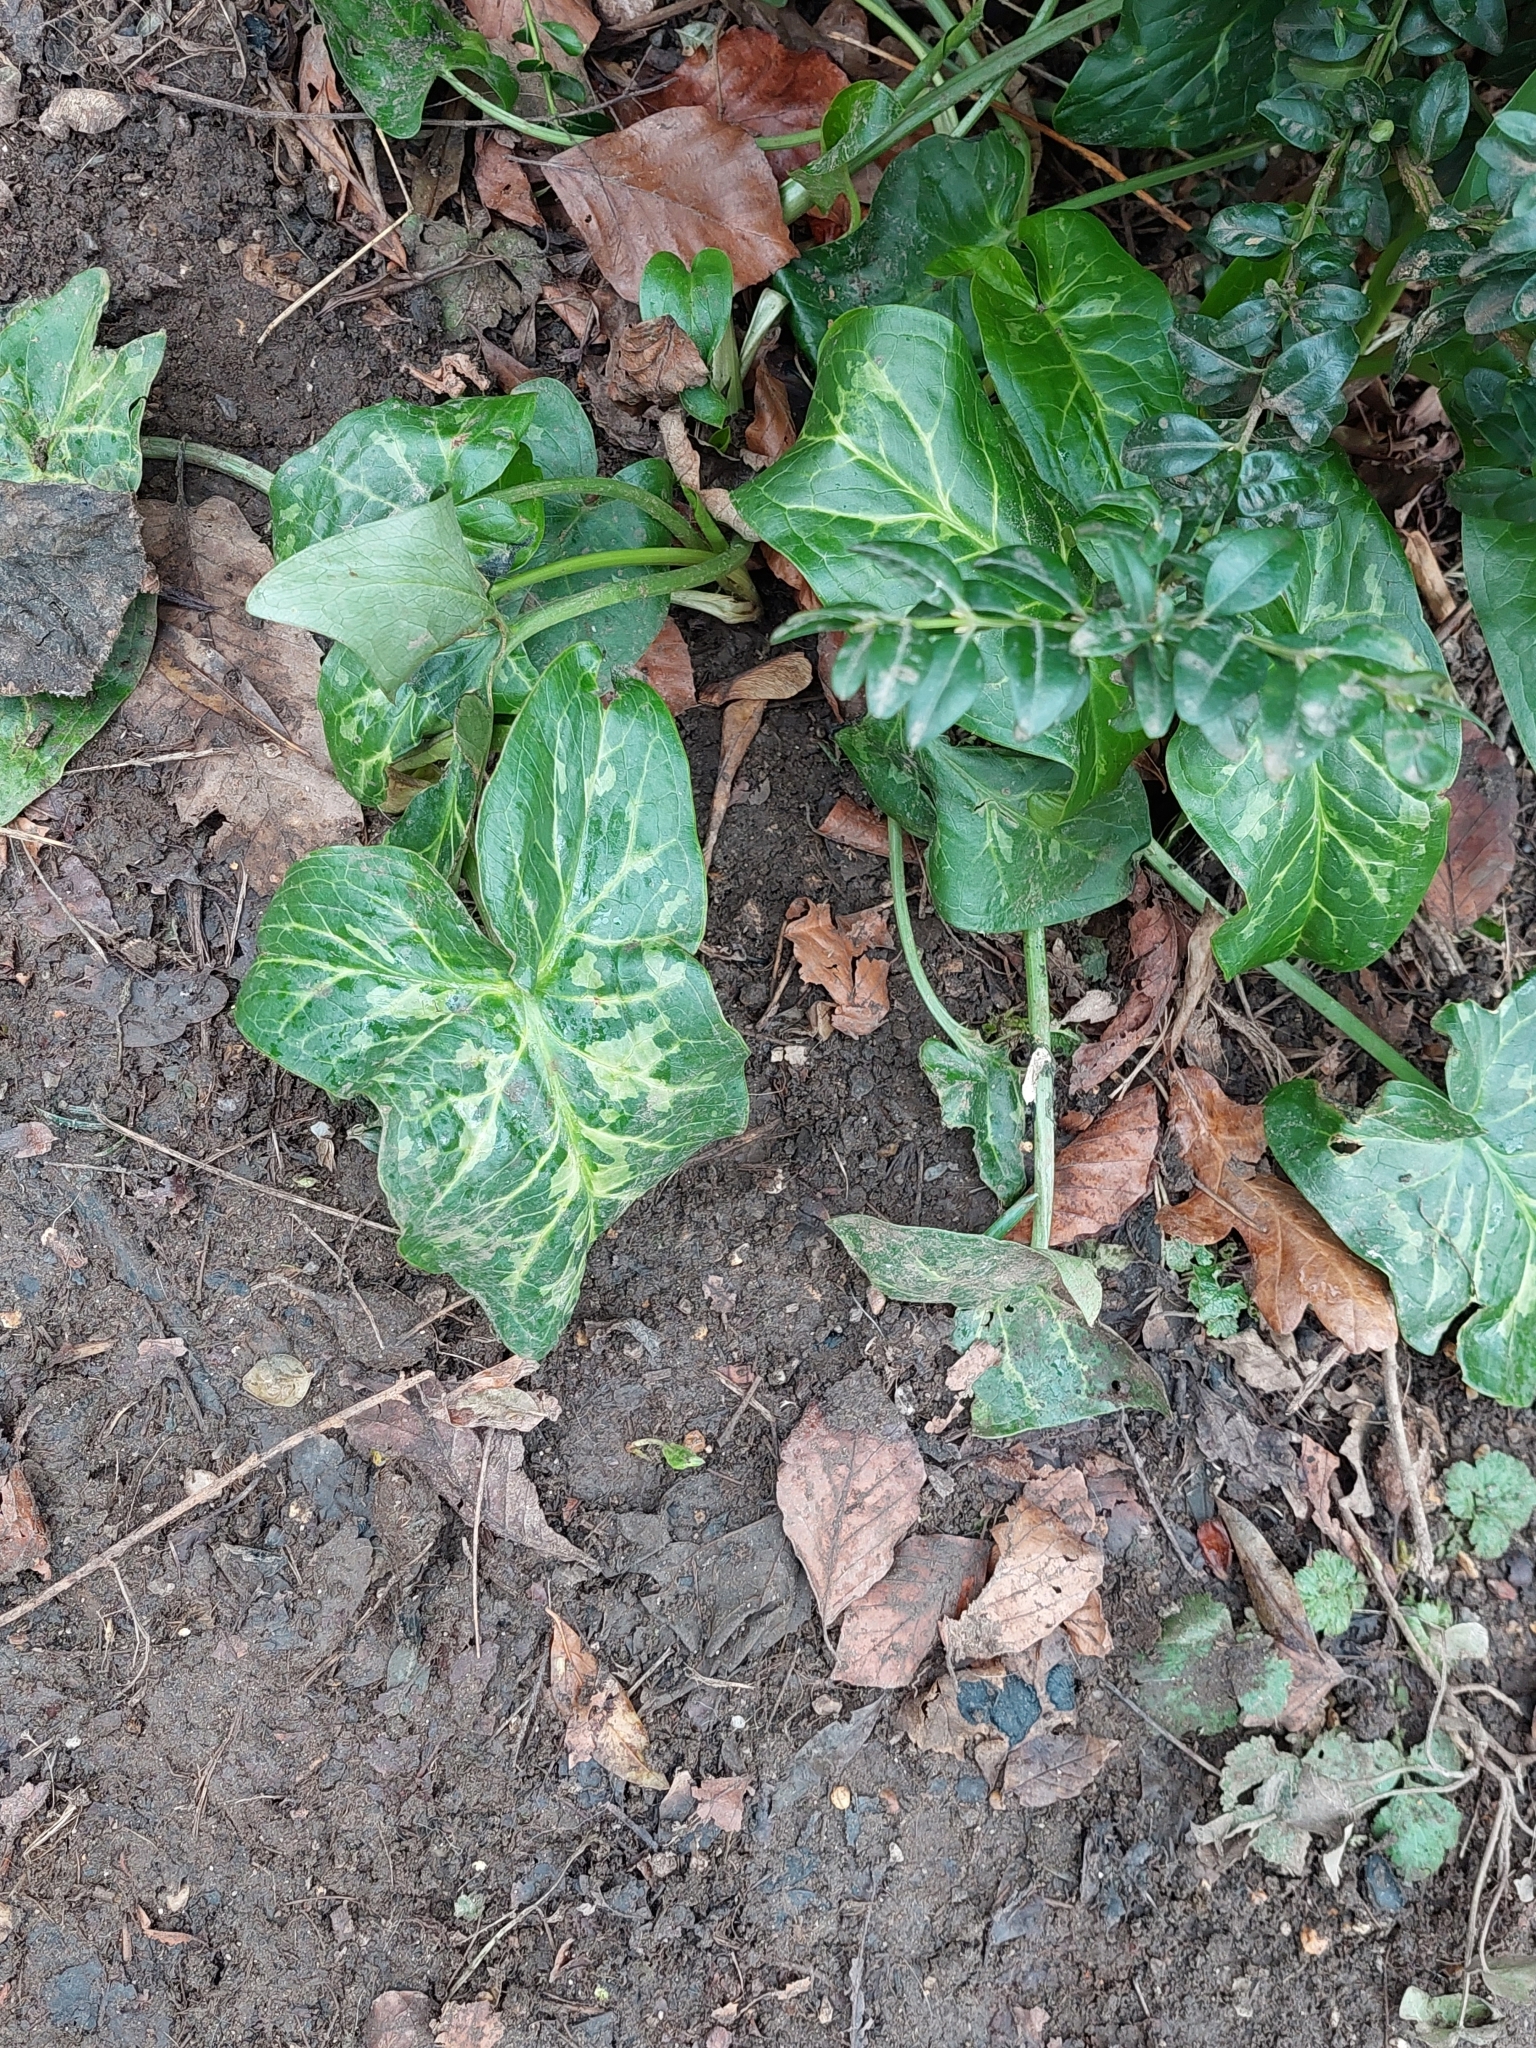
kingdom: Plantae
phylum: Tracheophyta
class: Liliopsida
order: Alismatales
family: Araceae
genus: Arum
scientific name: Arum italicum
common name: Italian lords-and-ladies
